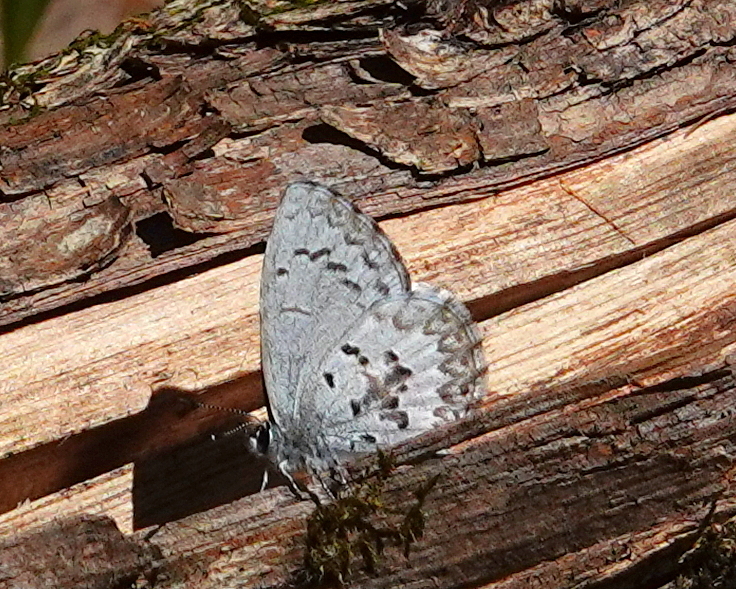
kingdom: Animalia
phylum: Arthropoda
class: Insecta
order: Lepidoptera
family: Lycaenidae
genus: Celastrina
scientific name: Celastrina lucia
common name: Lucia azure
